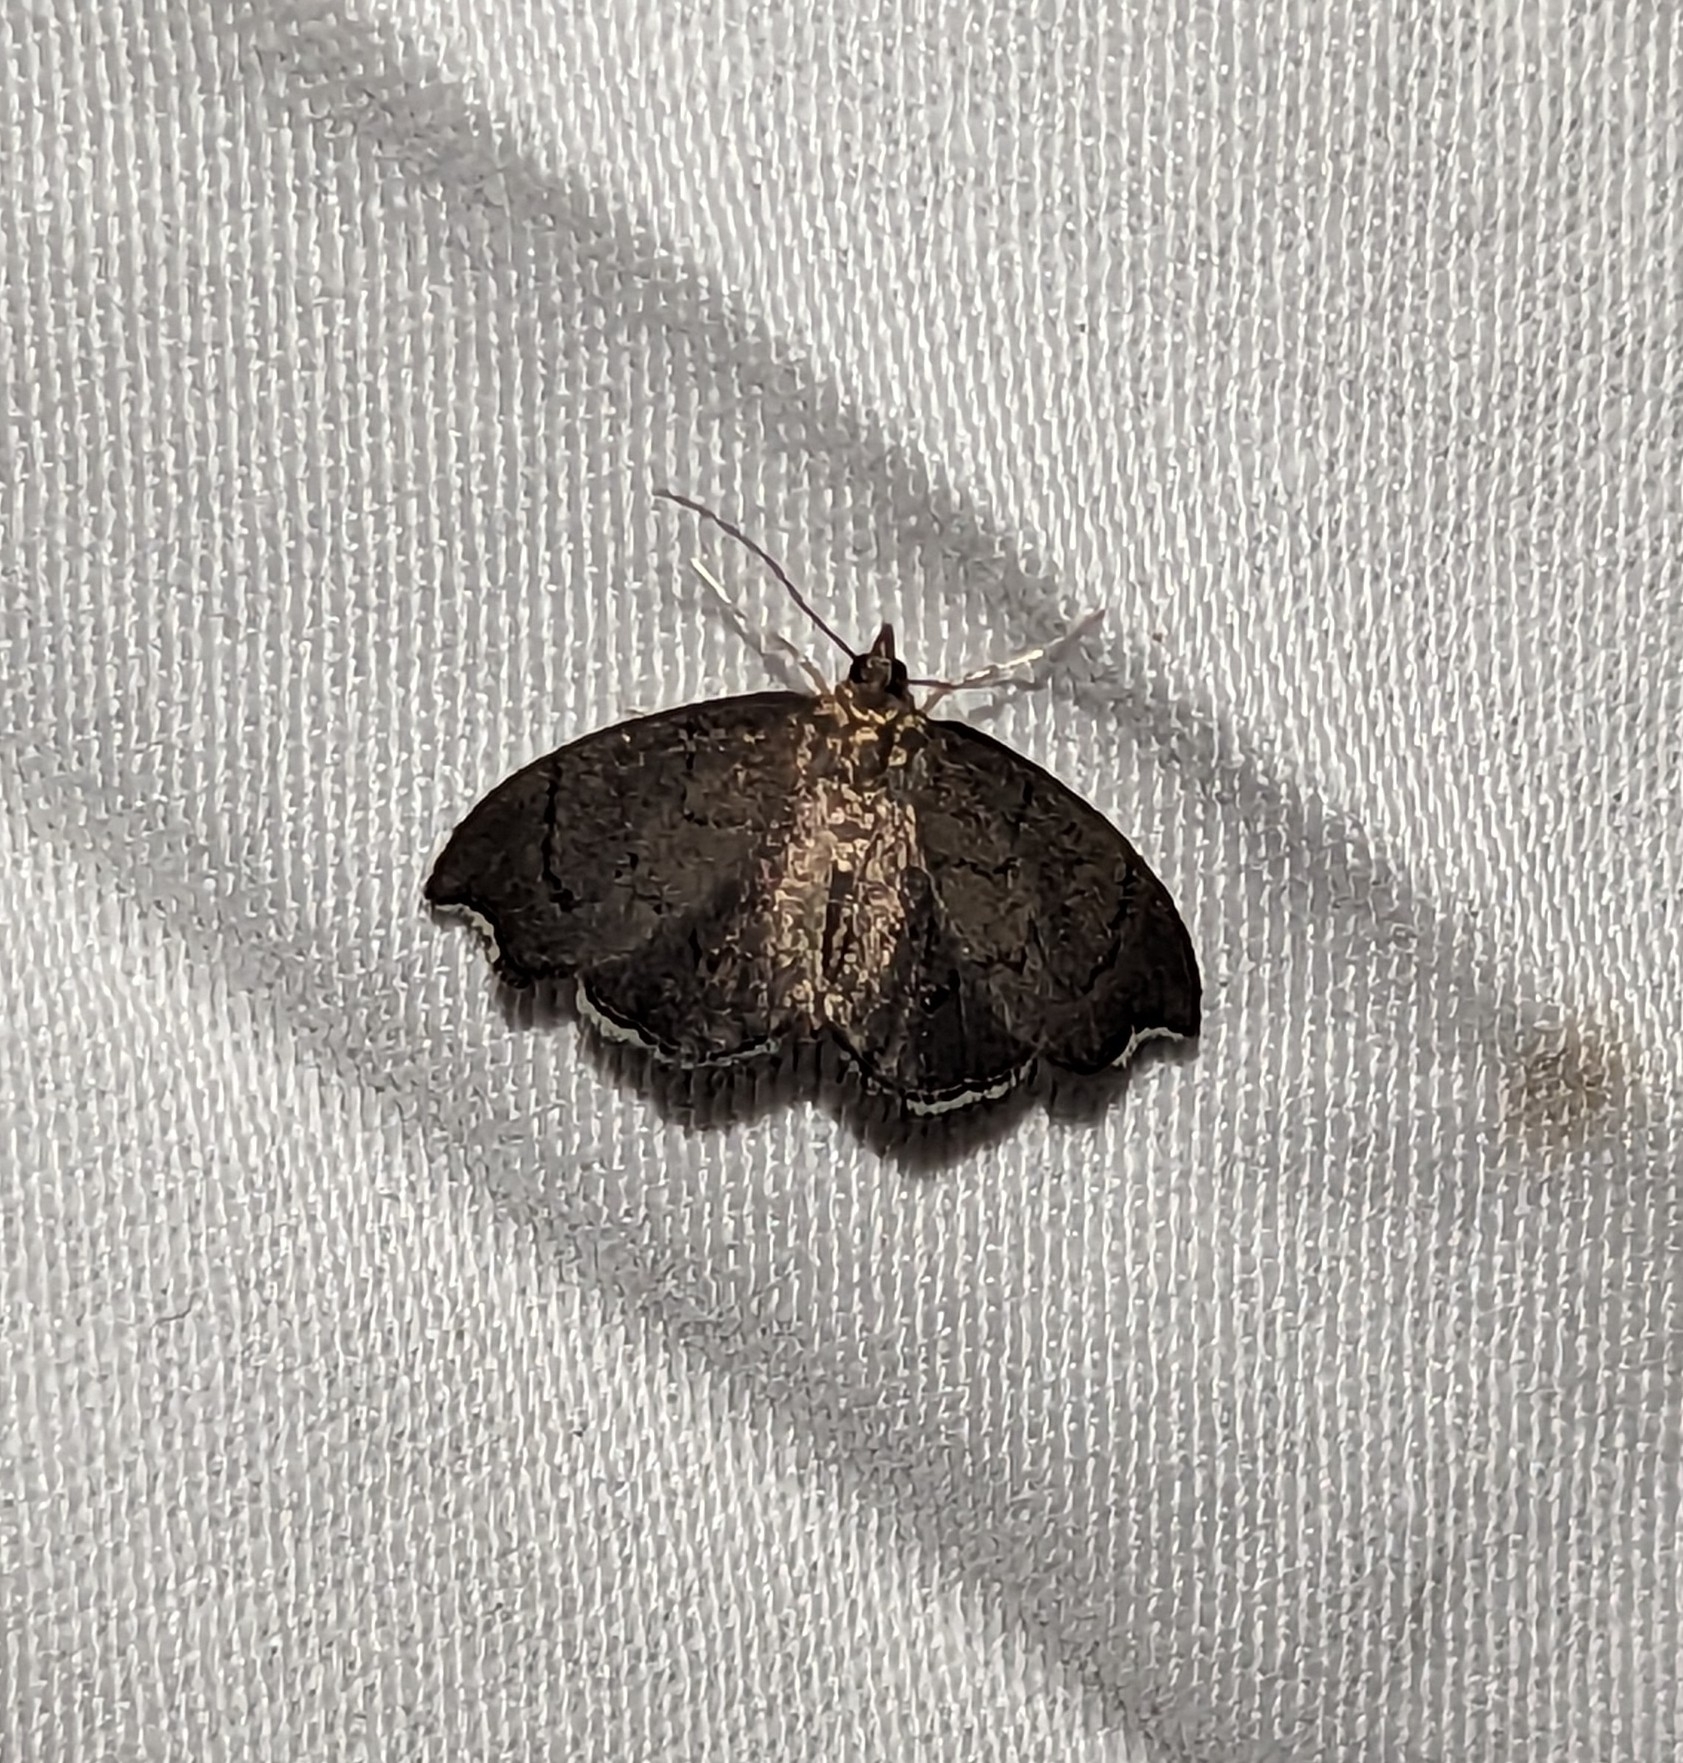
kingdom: Animalia
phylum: Arthropoda
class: Insecta
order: Lepidoptera
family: Crambidae
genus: Perispasta
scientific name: Perispasta caeculalis
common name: Titian peale's moth
